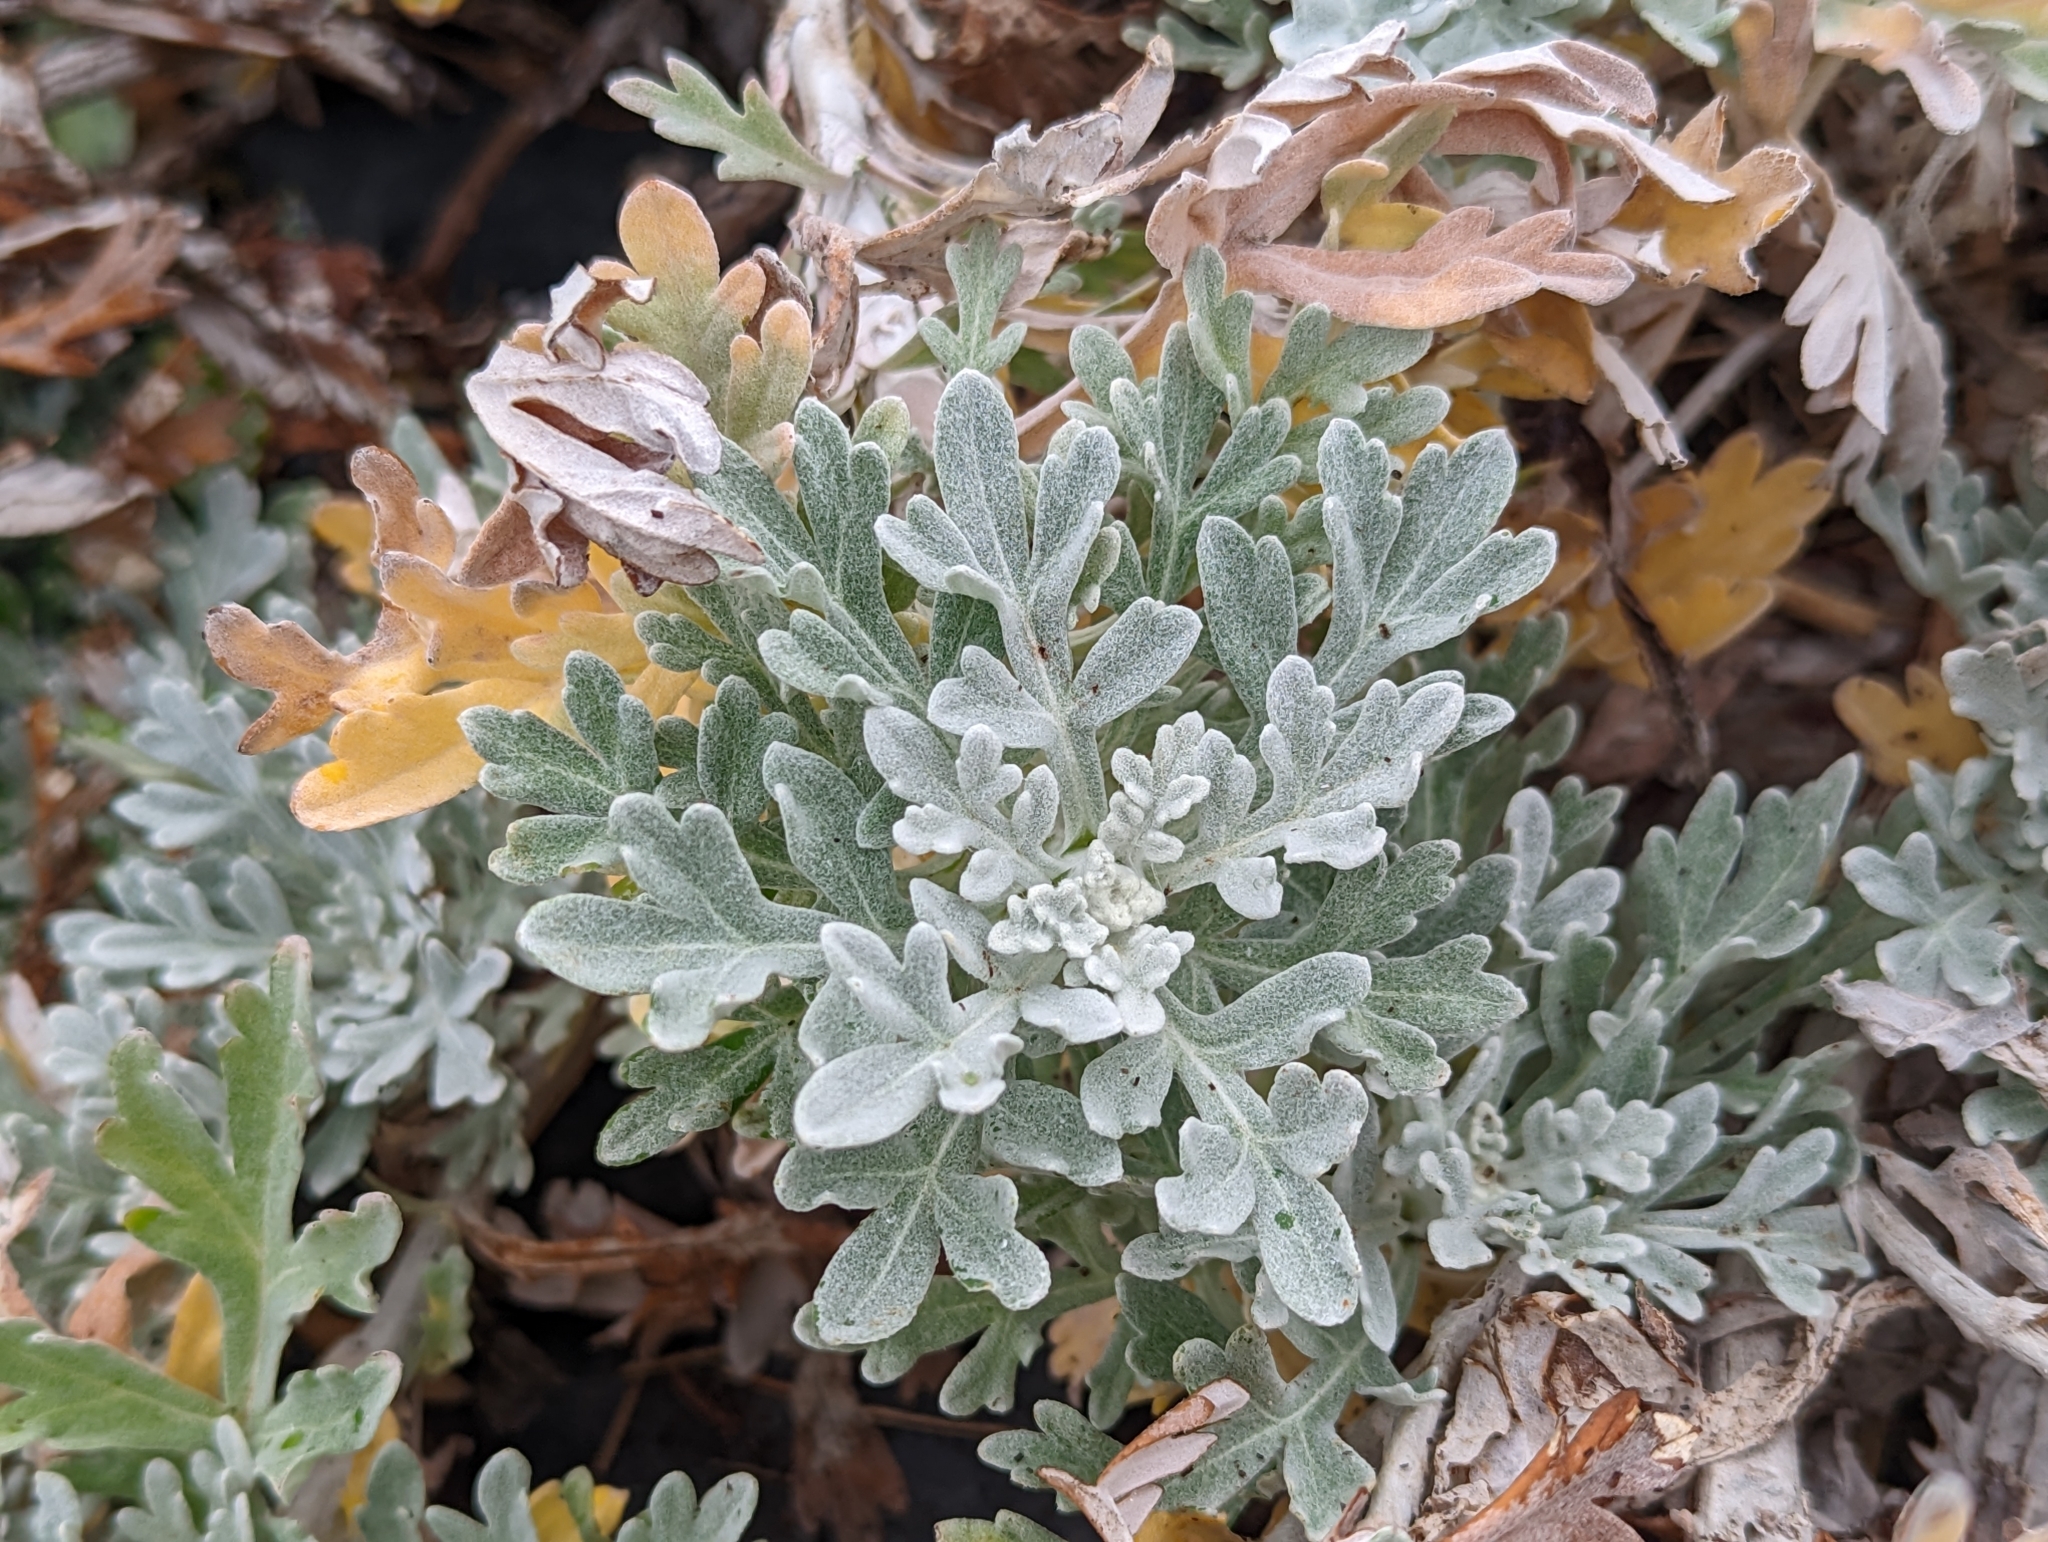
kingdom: Plantae
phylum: Tracheophyta
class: Magnoliopsida
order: Asterales
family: Asteraceae
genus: Artemisia
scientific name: Artemisia stelleriana
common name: Beach wormwood
